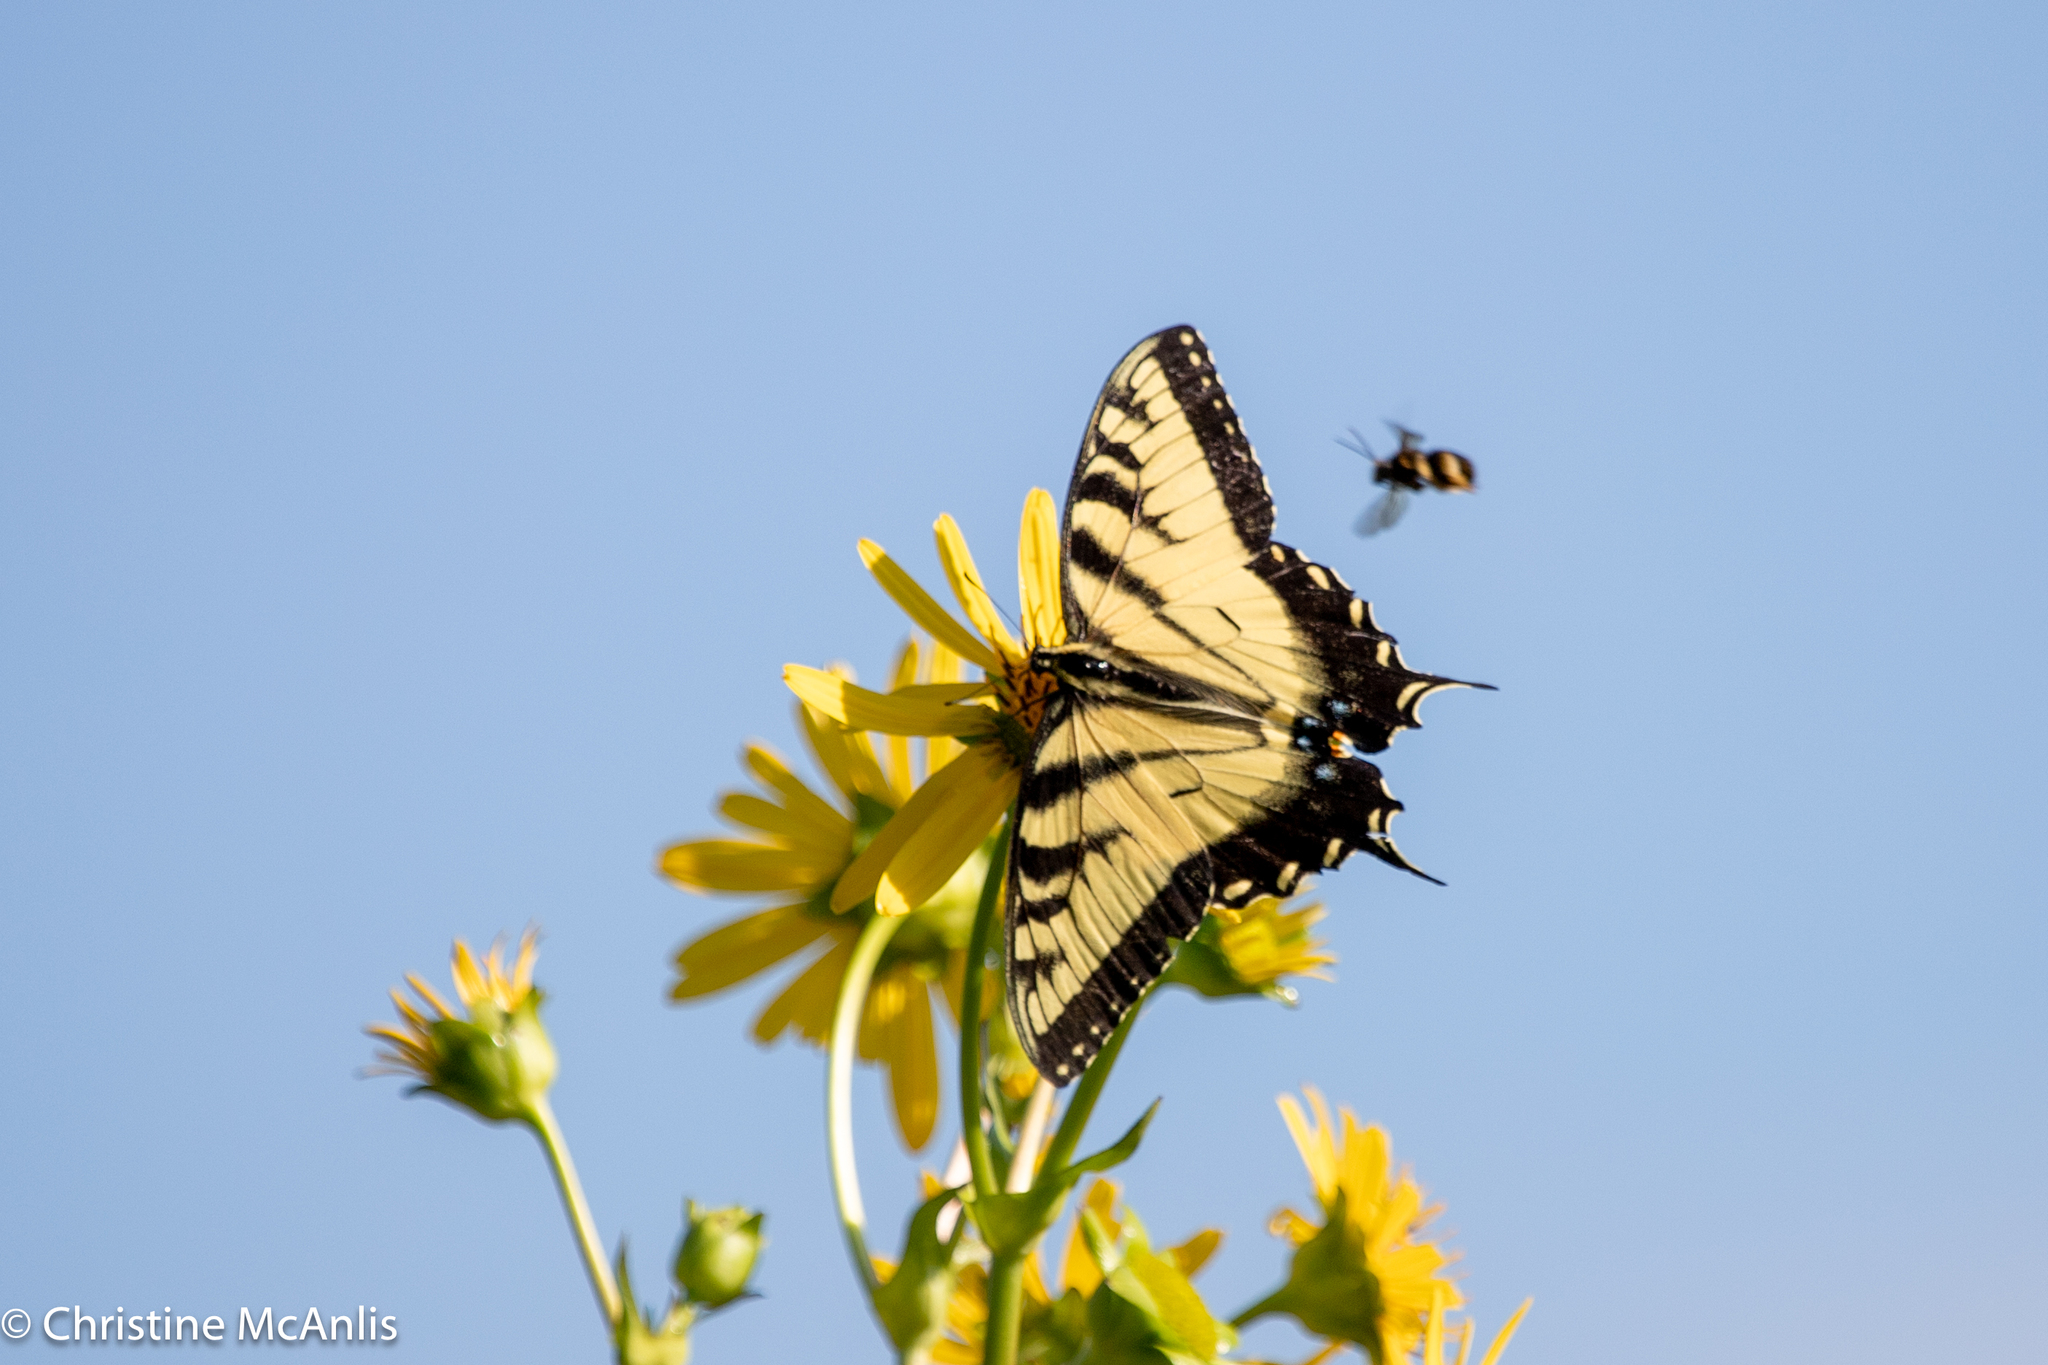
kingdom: Animalia
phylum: Arthropoda
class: Insecta
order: Lepidoptera
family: Papilionidae
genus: Papilio
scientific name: Papilio glaucus
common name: Tiger swallowtail
